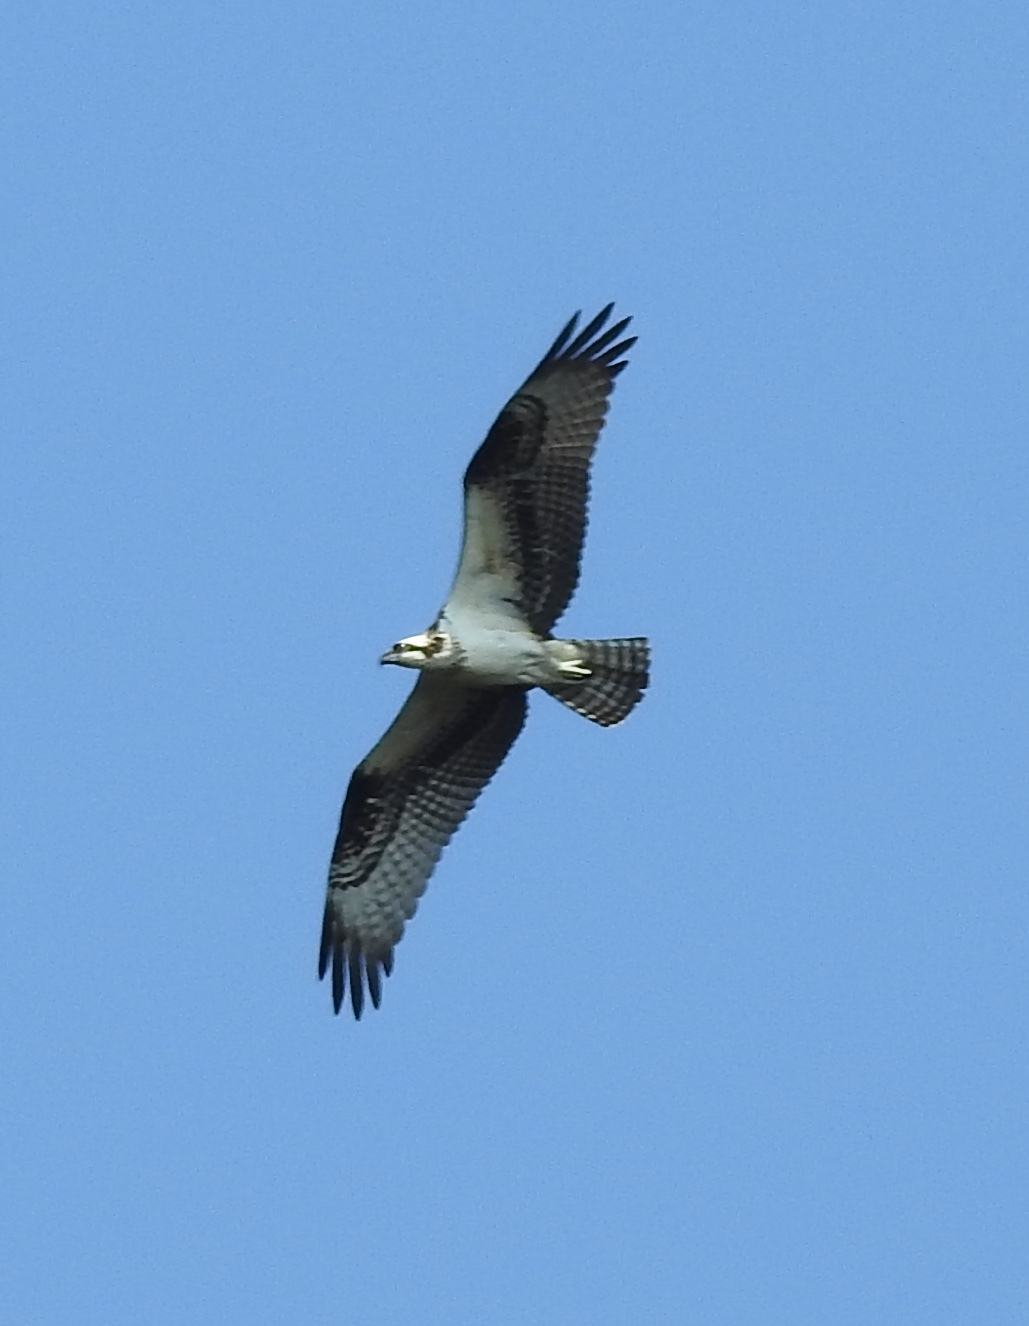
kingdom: Animalia
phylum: Chordata
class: Aves
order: Accipitriformes
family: Pandionidae
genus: Pandion
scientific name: Pandion haliaetus
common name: Osprey
